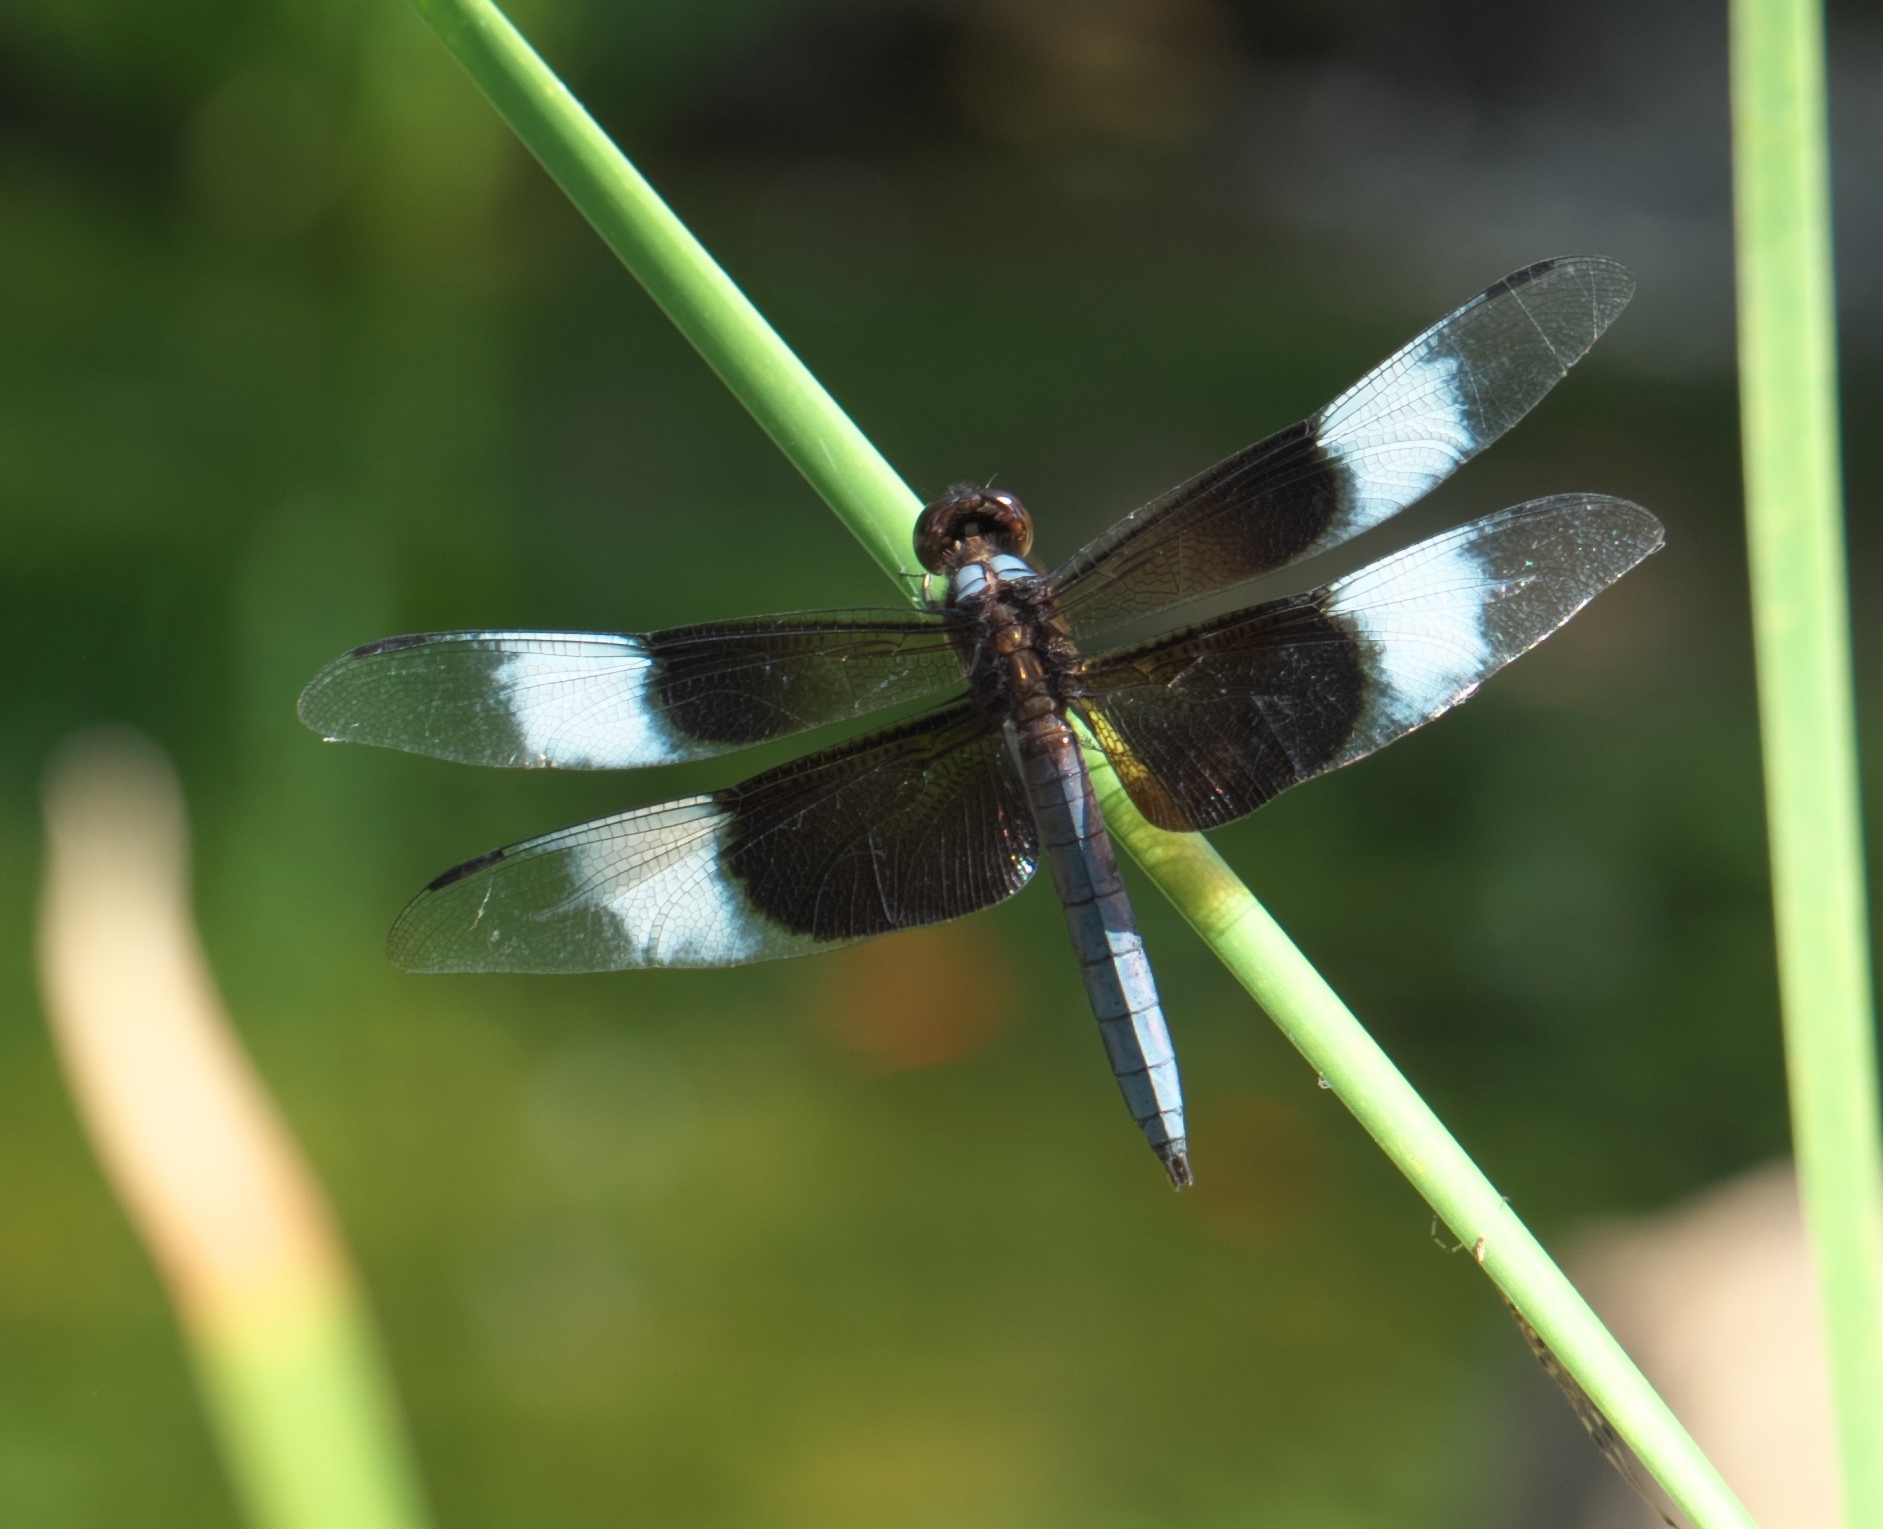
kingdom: Animalia
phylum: Arthropoda
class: Insecta
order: Odonata
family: Libellulidae
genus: Libellula
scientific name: Libellula luctuosa
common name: Widow skimmer
